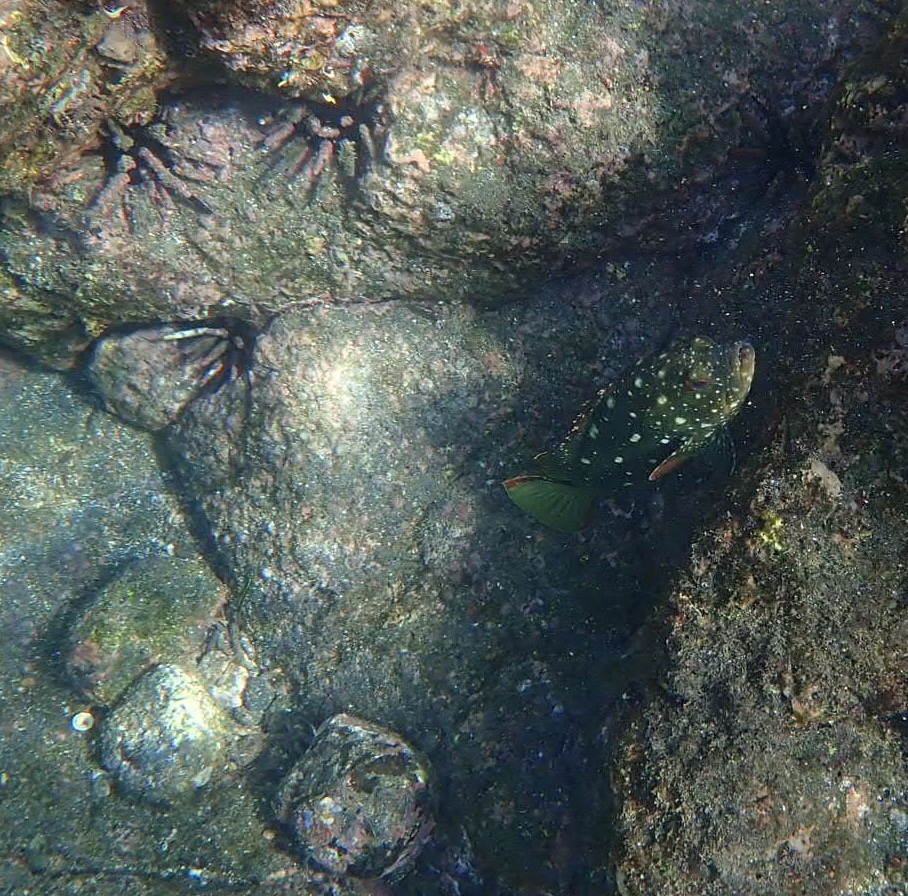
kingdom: Animalia
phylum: Chordata
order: Perciformes
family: Serranidae
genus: Epinephelus
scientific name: Epinephelus labriformis
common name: Flag cabrilla
